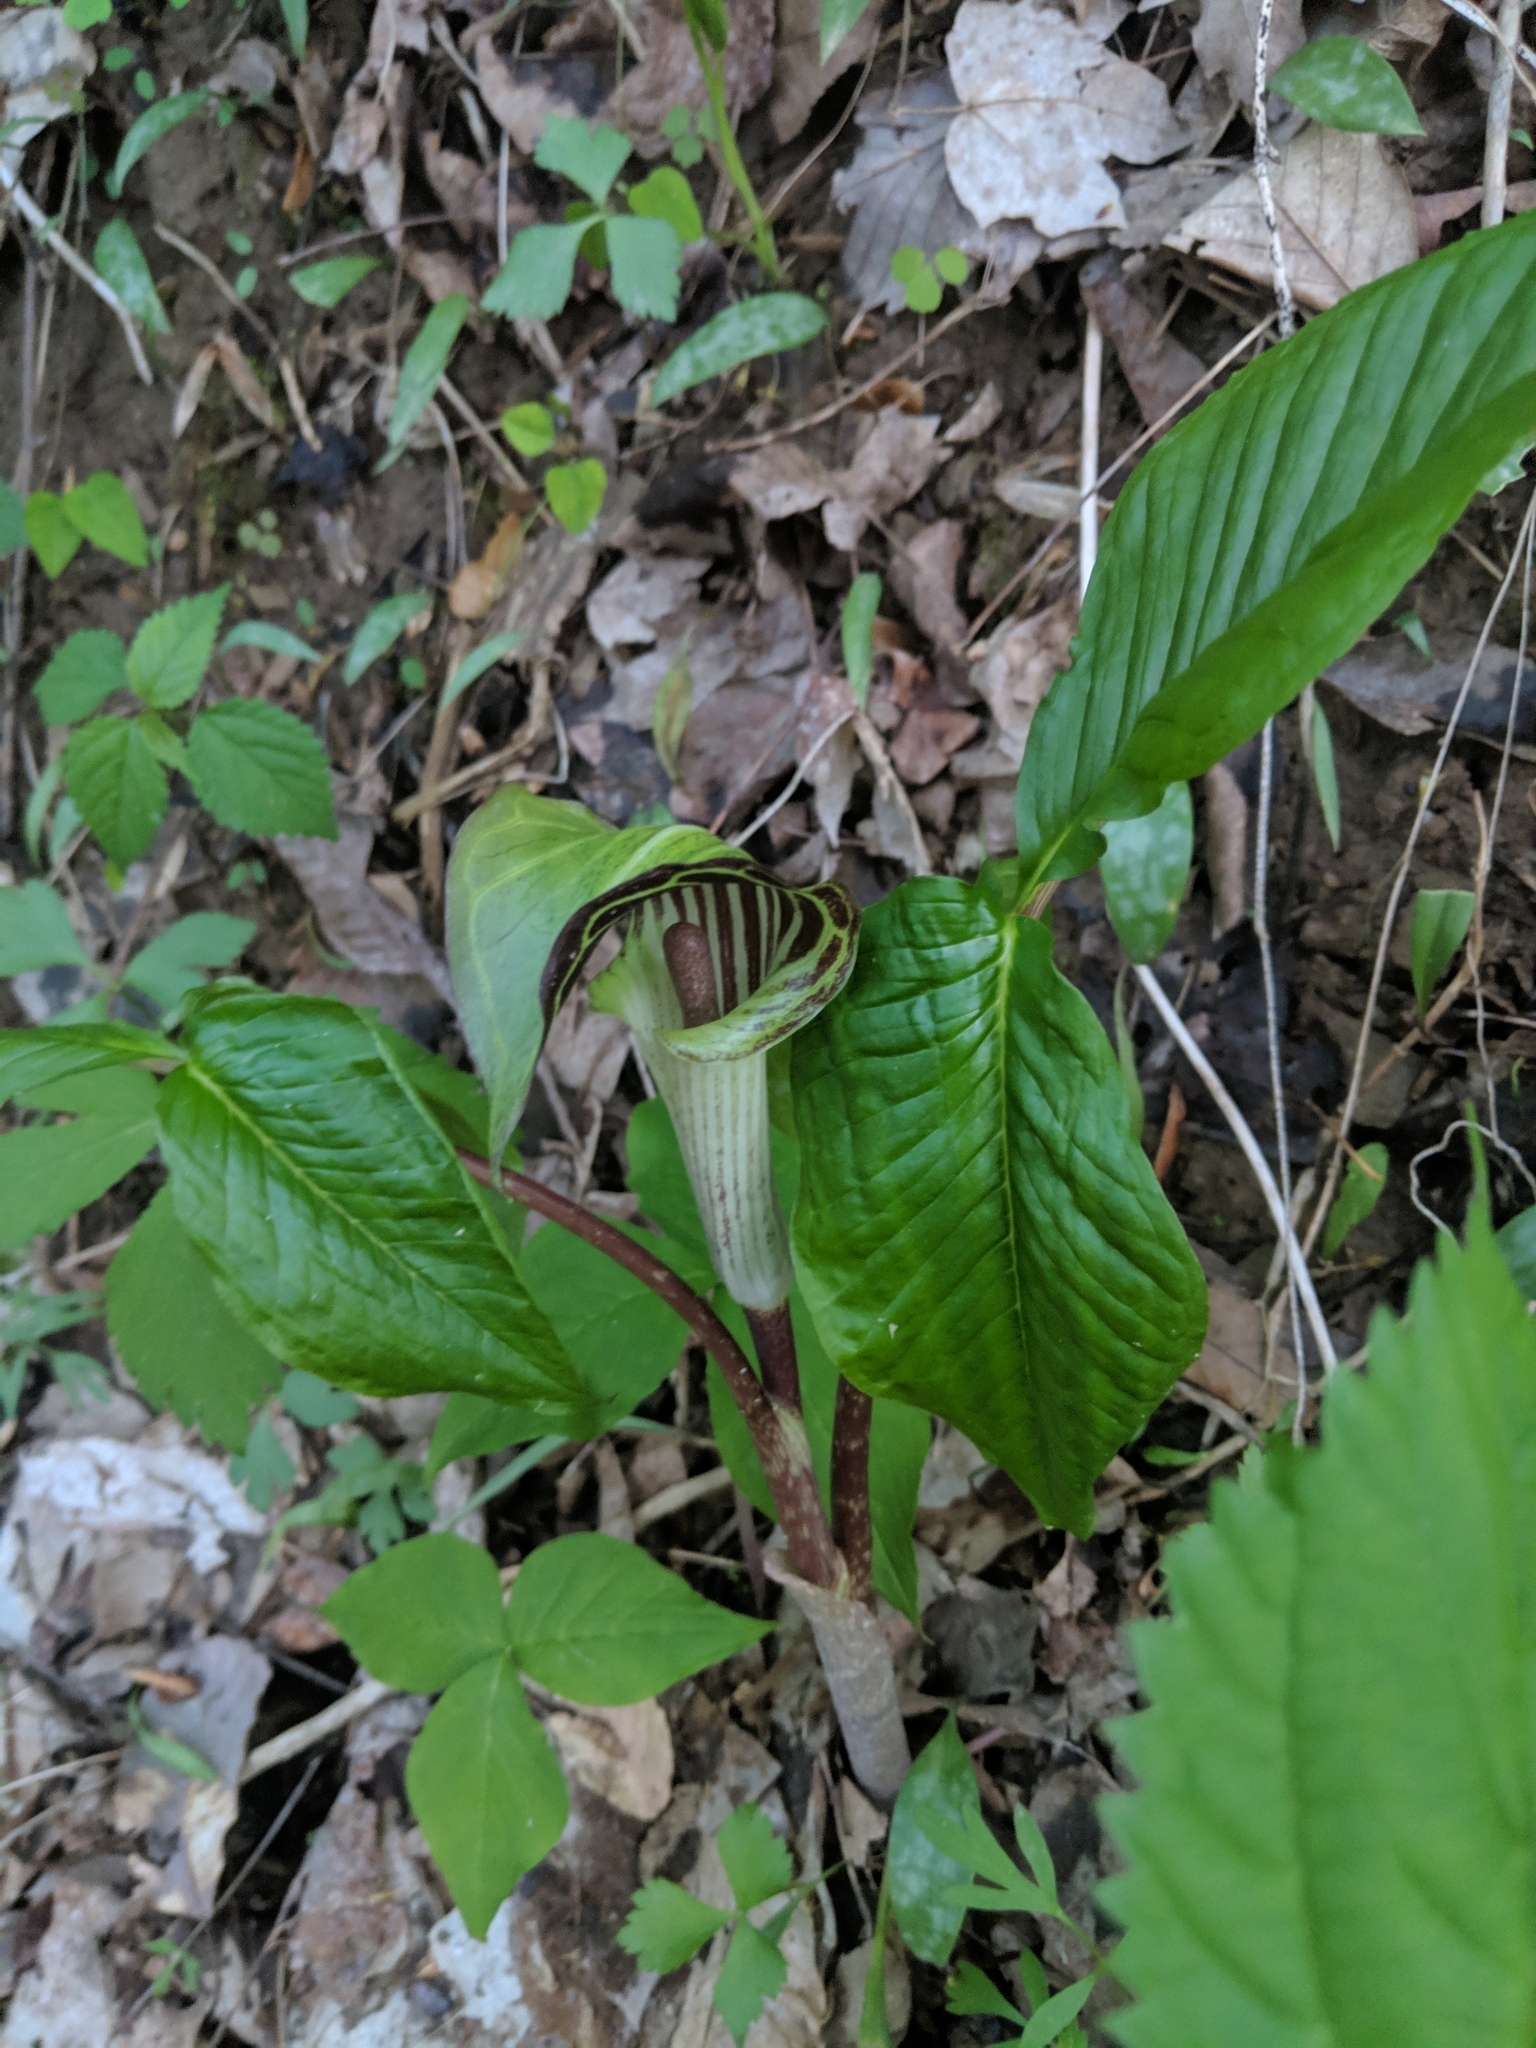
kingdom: Plantae
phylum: Tracheophyta
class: Liliopsida
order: Alismatales
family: Araceae
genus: Arisaema
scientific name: Arisaema triphyllum
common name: Jack-in-the-pulpit
